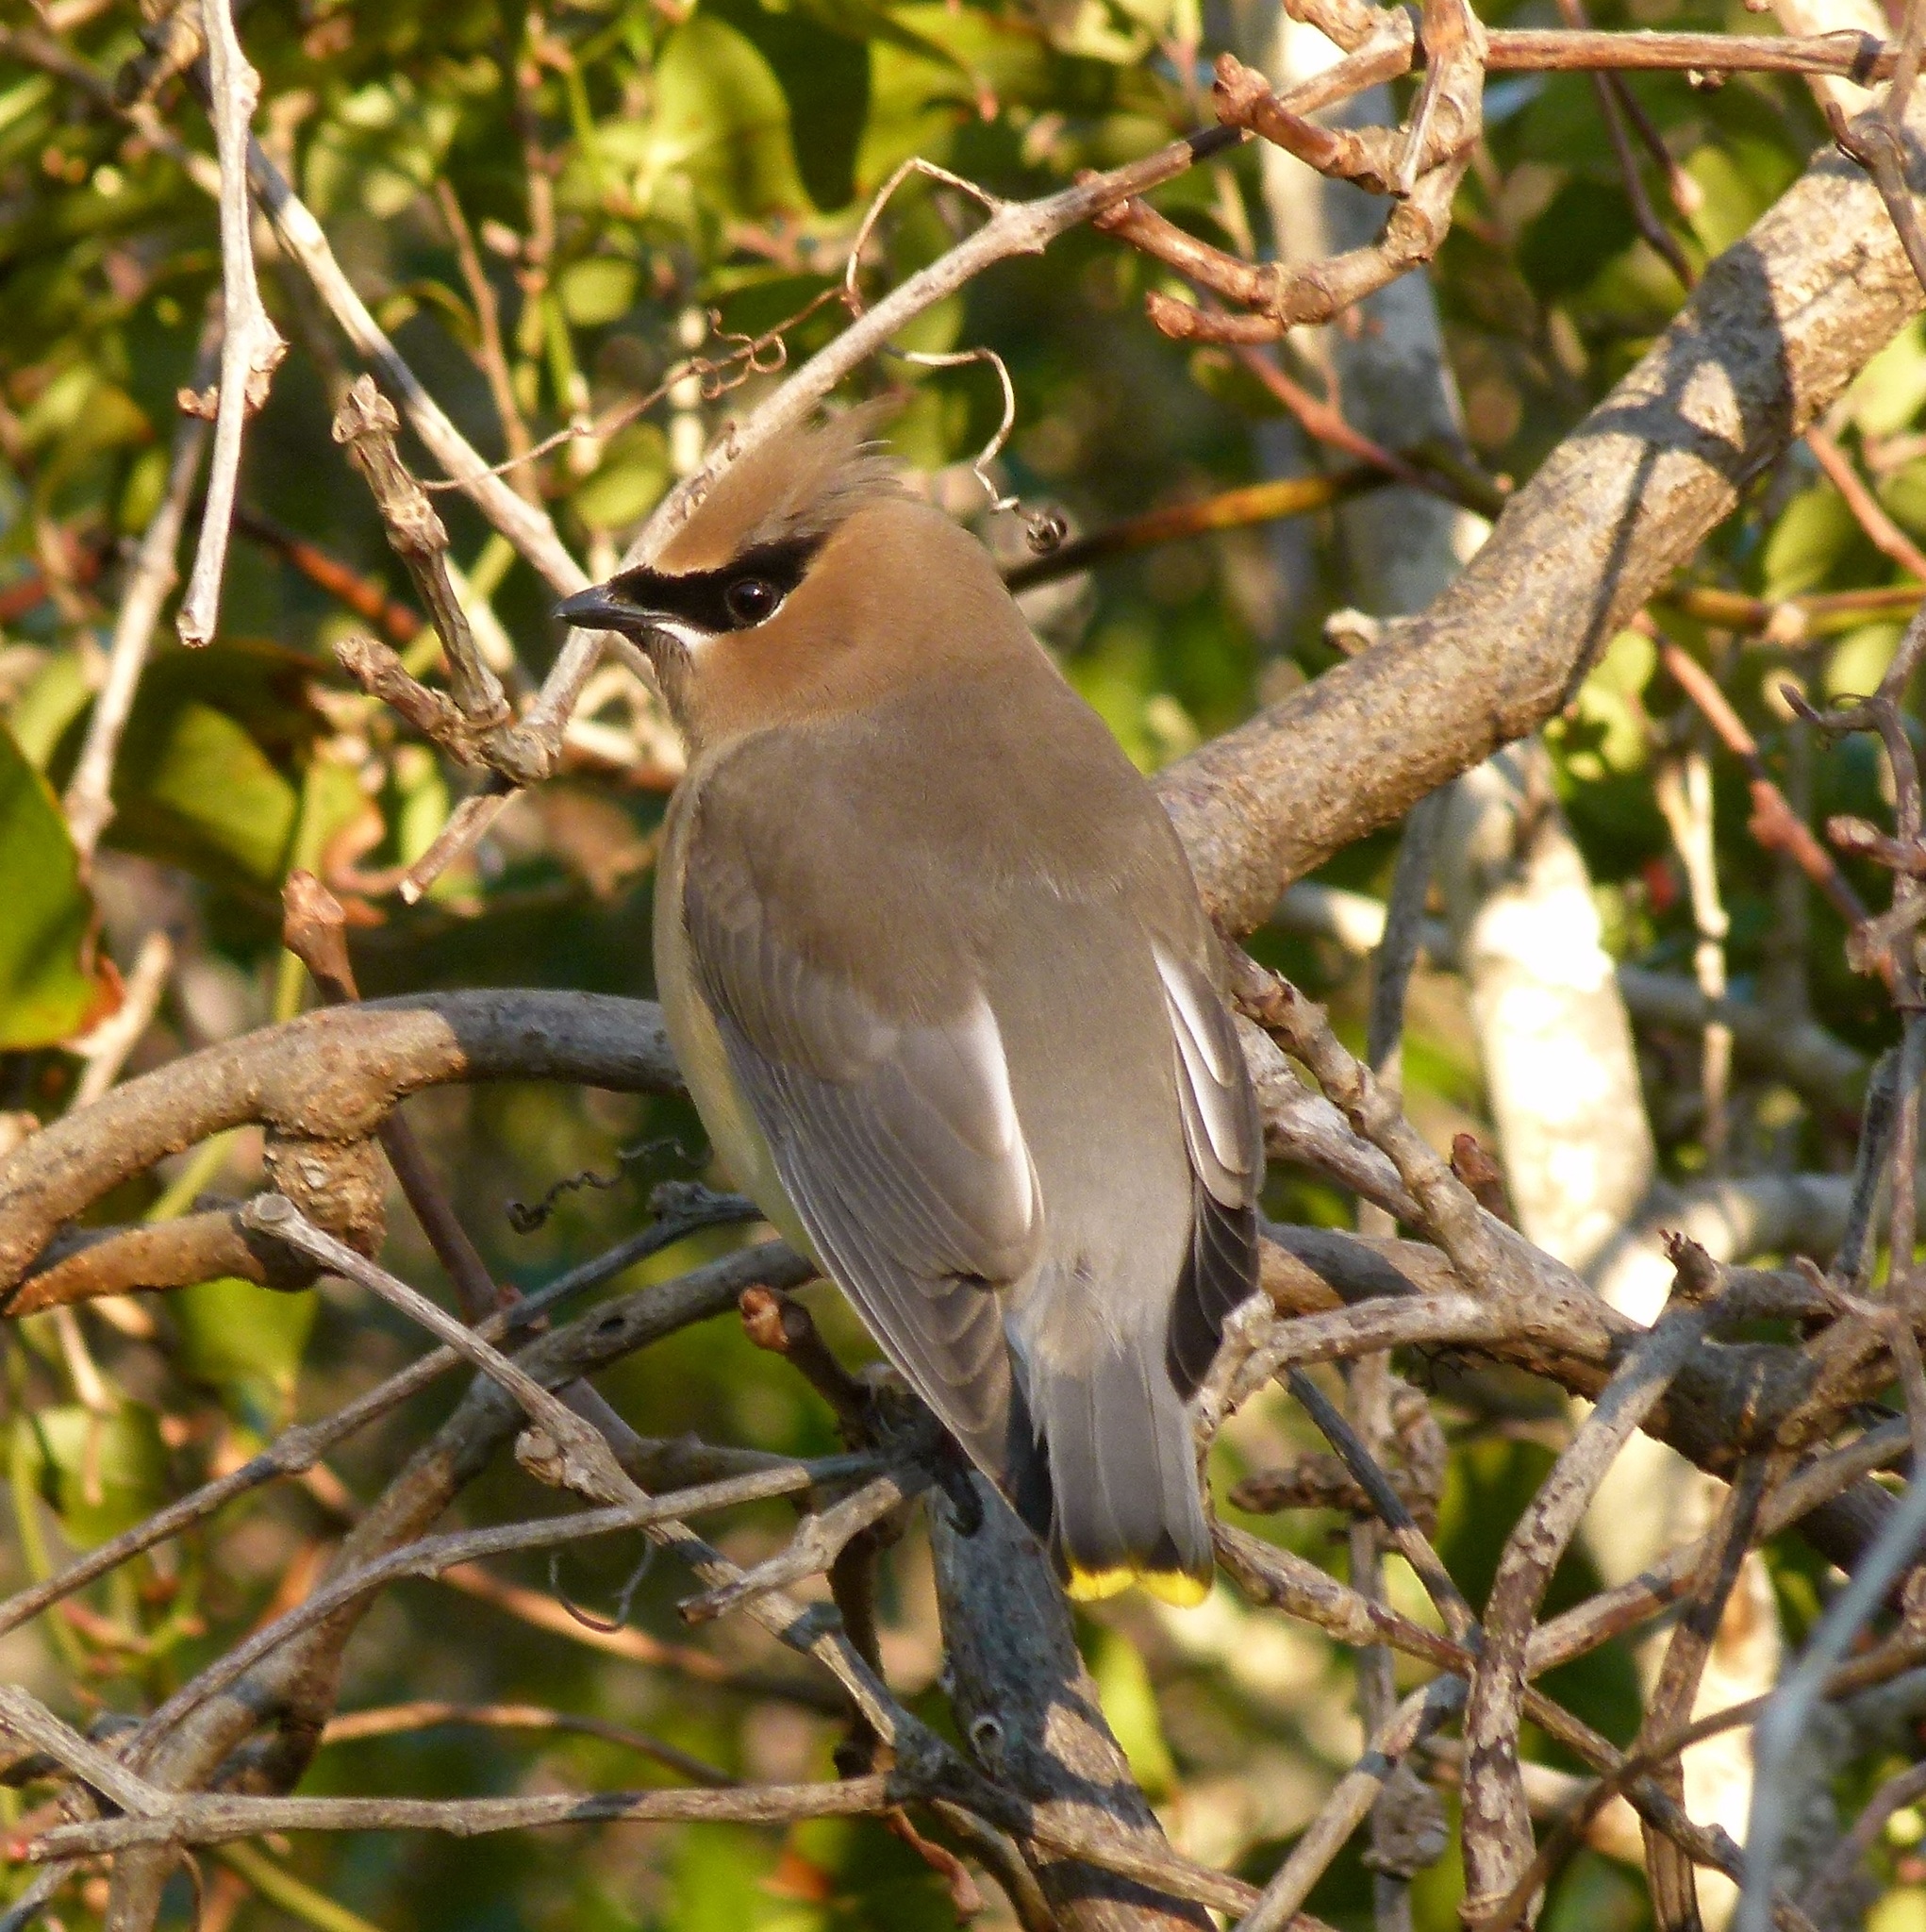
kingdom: Animalia
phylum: Chordata
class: Aves
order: Passeriformes
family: Bombycillidae
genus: Bombycilla
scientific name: Bombycilla cedrorum
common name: Cedar waxwing
